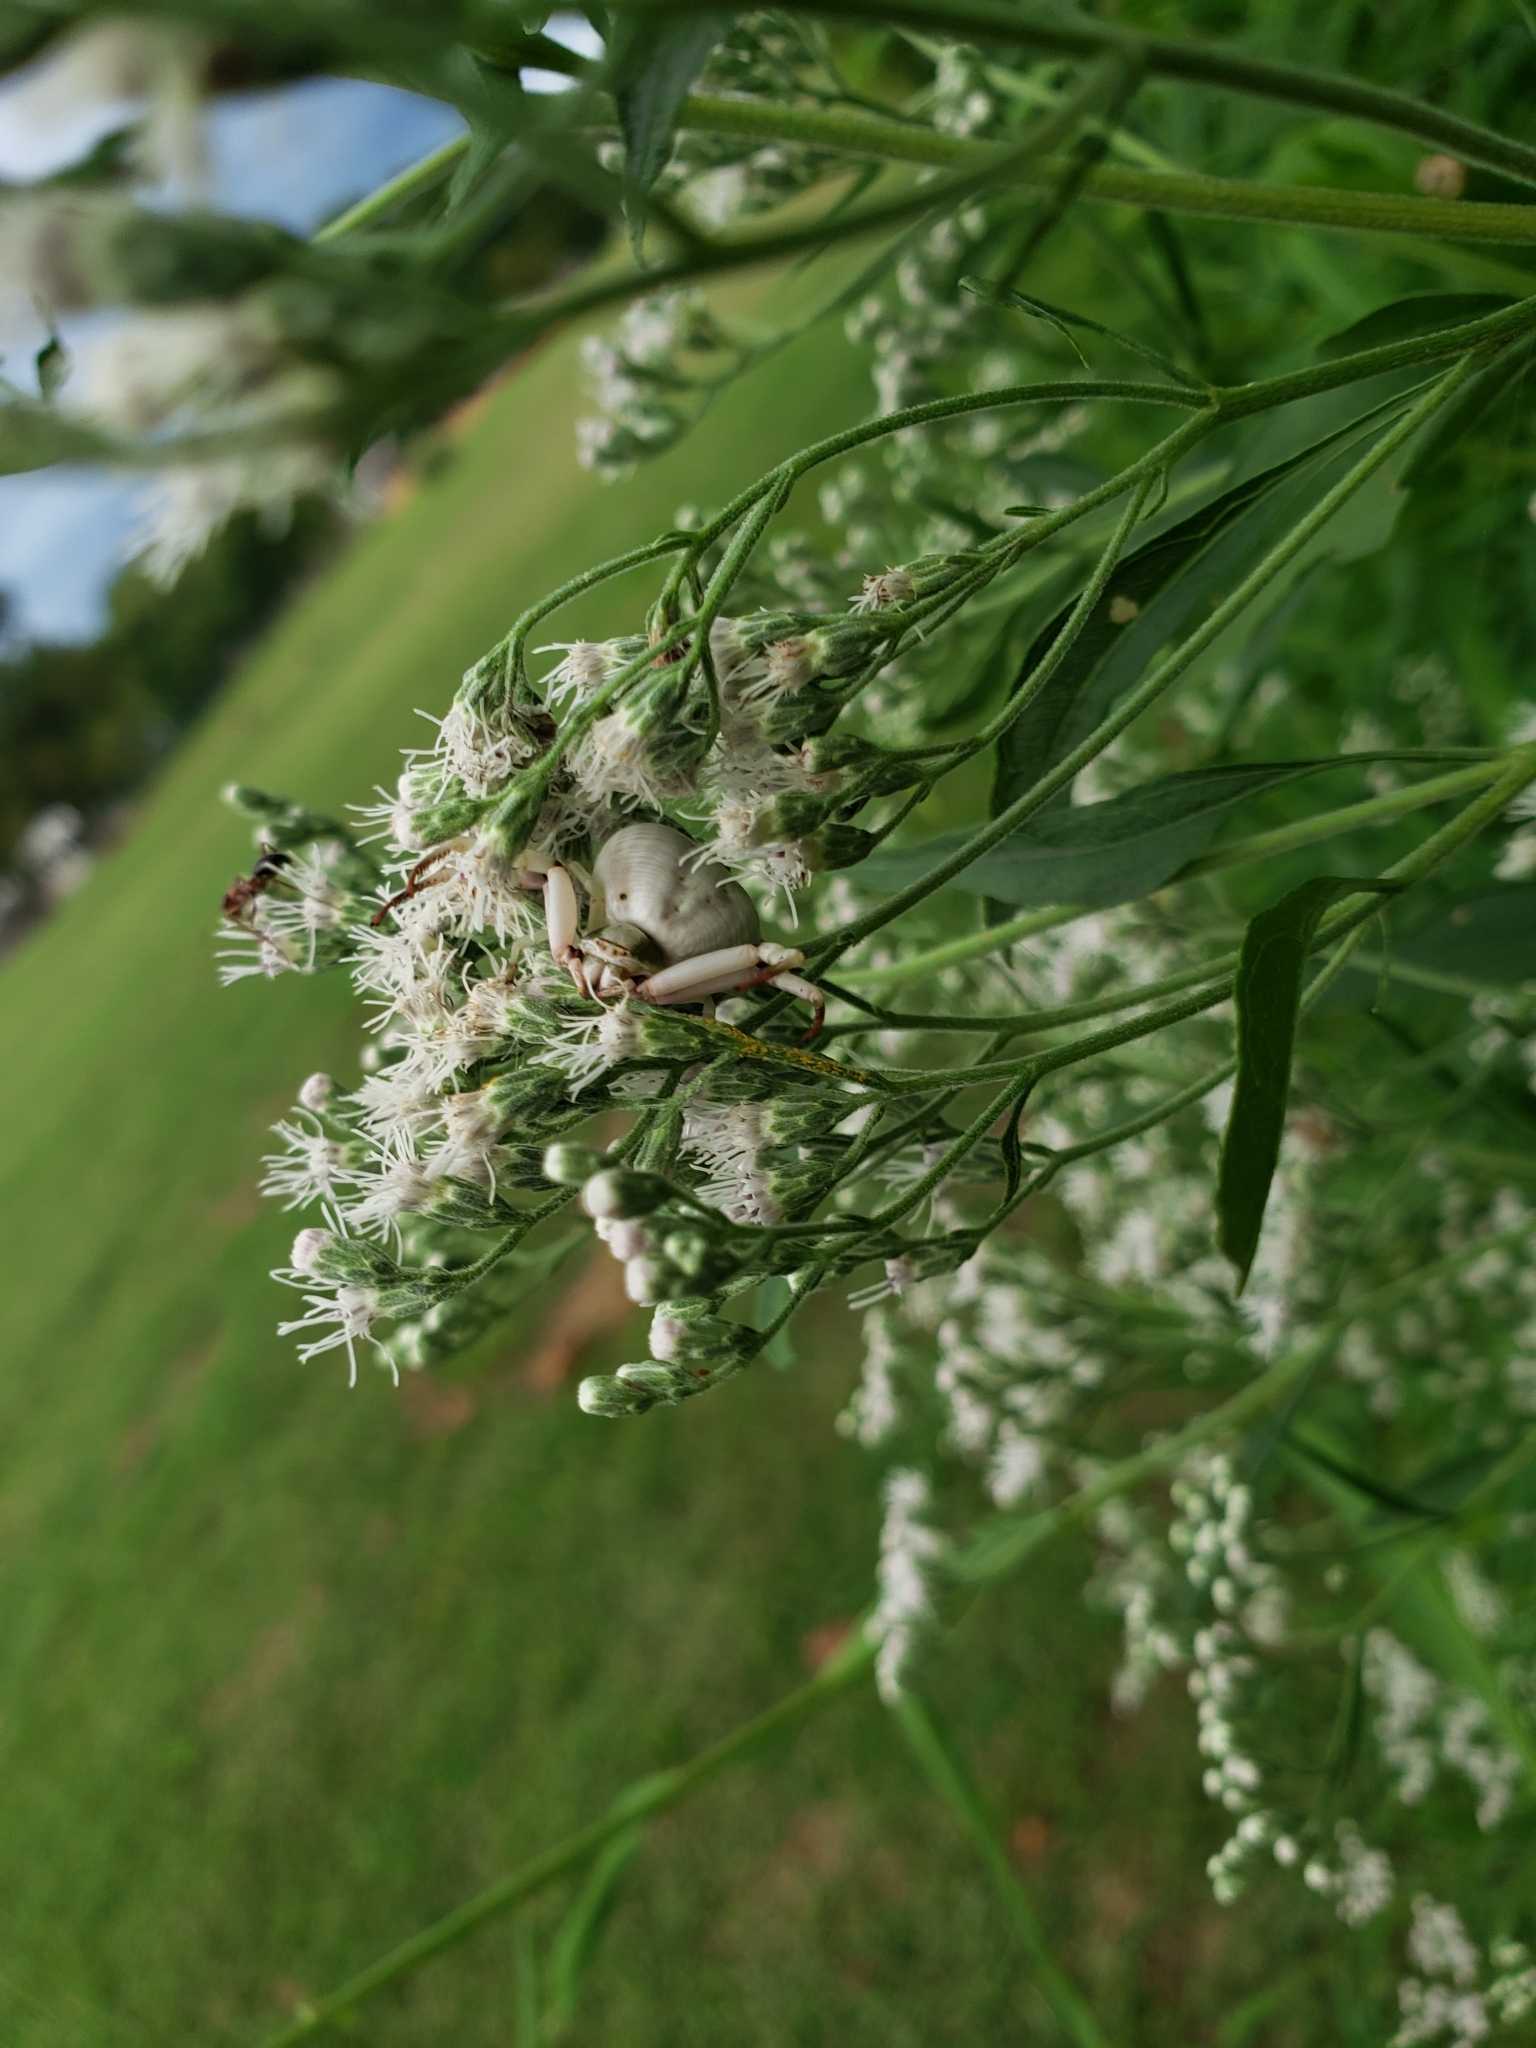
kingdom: Animalia
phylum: Arthropoda
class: Arachnida
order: Araneae
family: Thomisidae
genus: Misumenoides
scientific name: Misumenoides formosipes
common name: White-banded crab spider
